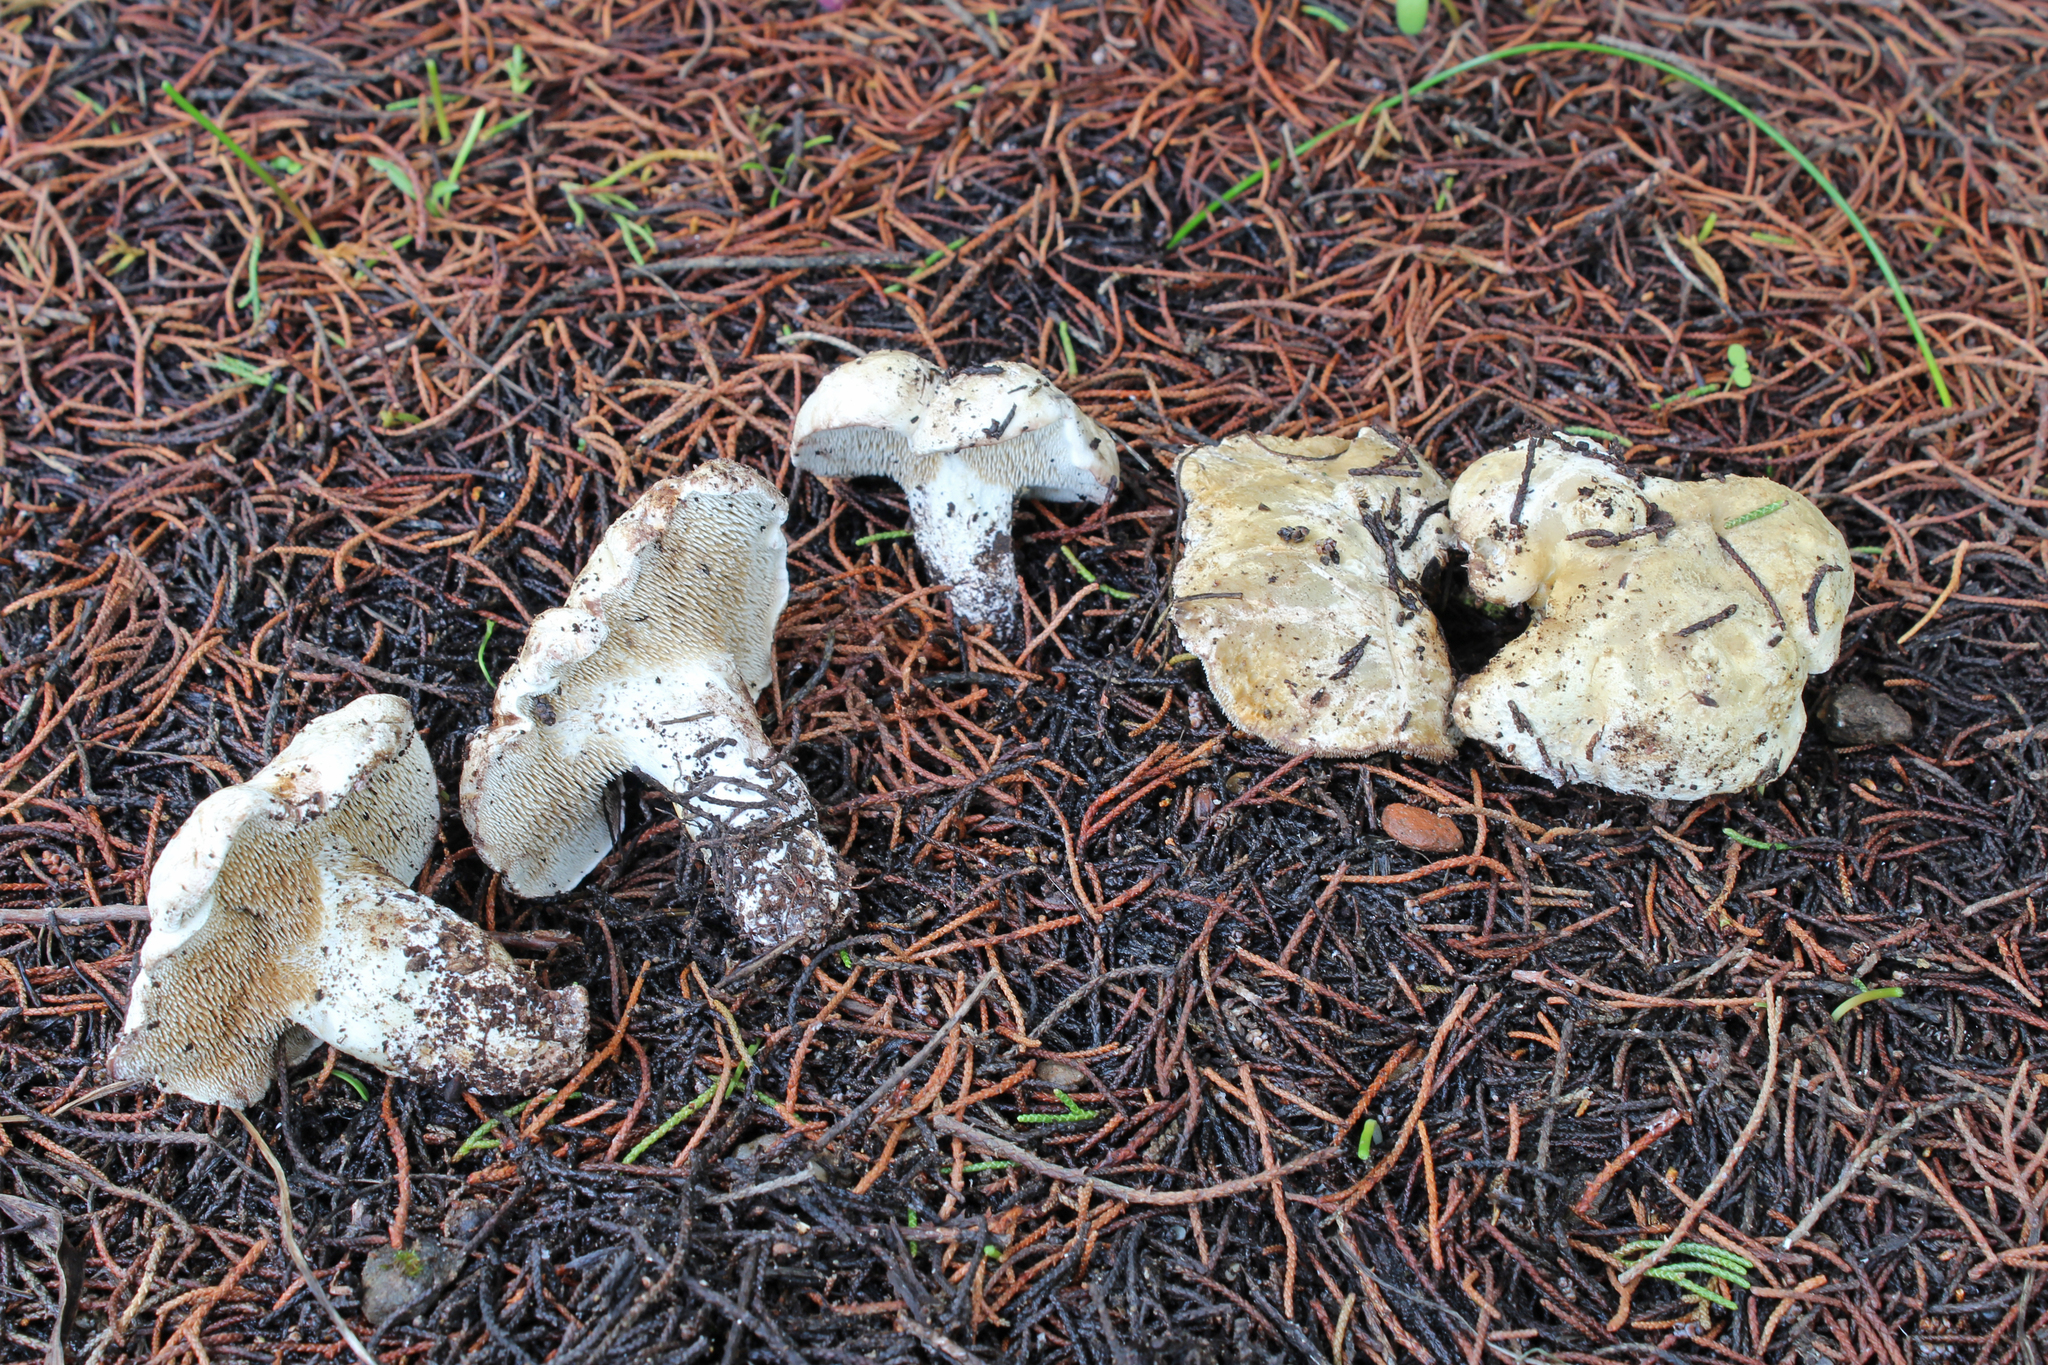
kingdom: Fungi
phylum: Basidiomycota
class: Agaricomycetes
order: Gomphales
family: Clavariadelphaceae
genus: Beenakia
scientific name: Beenakia mediterranea
